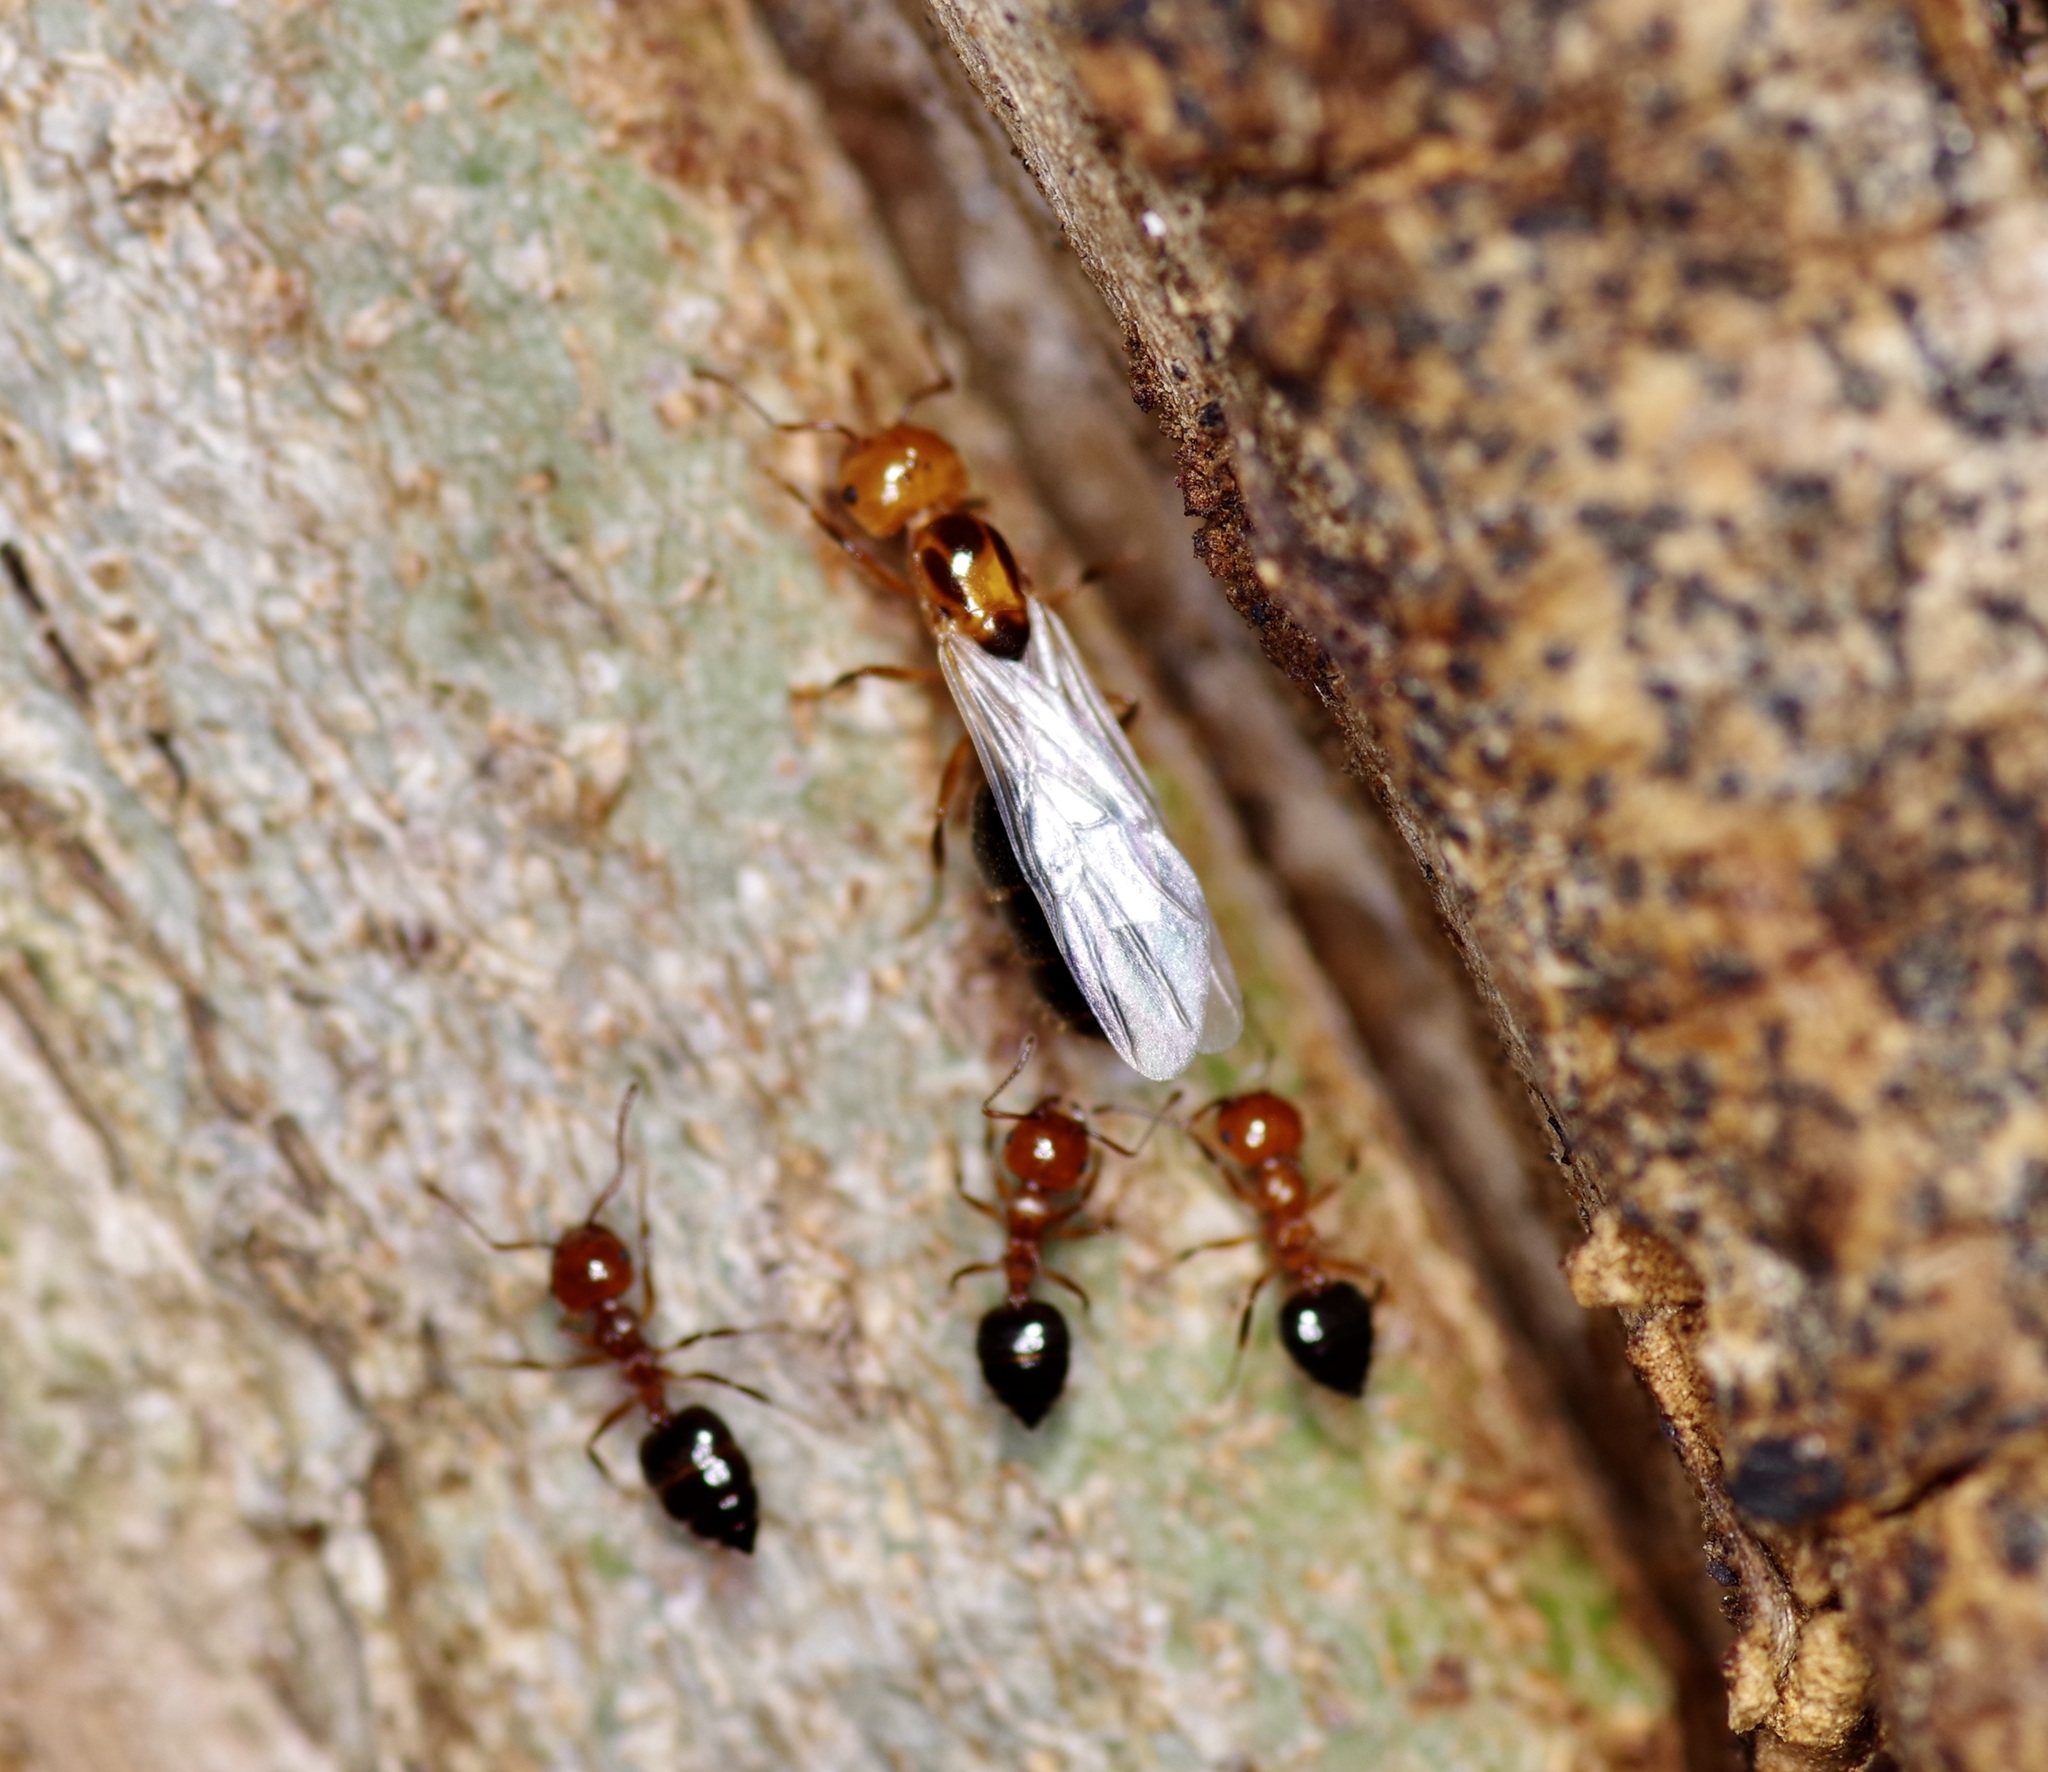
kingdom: Animalia
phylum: Arthropoda
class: Insecta
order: Hymenoptera
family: Formicidae
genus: Crematogaster
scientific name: Crematogaster laeviuscula
